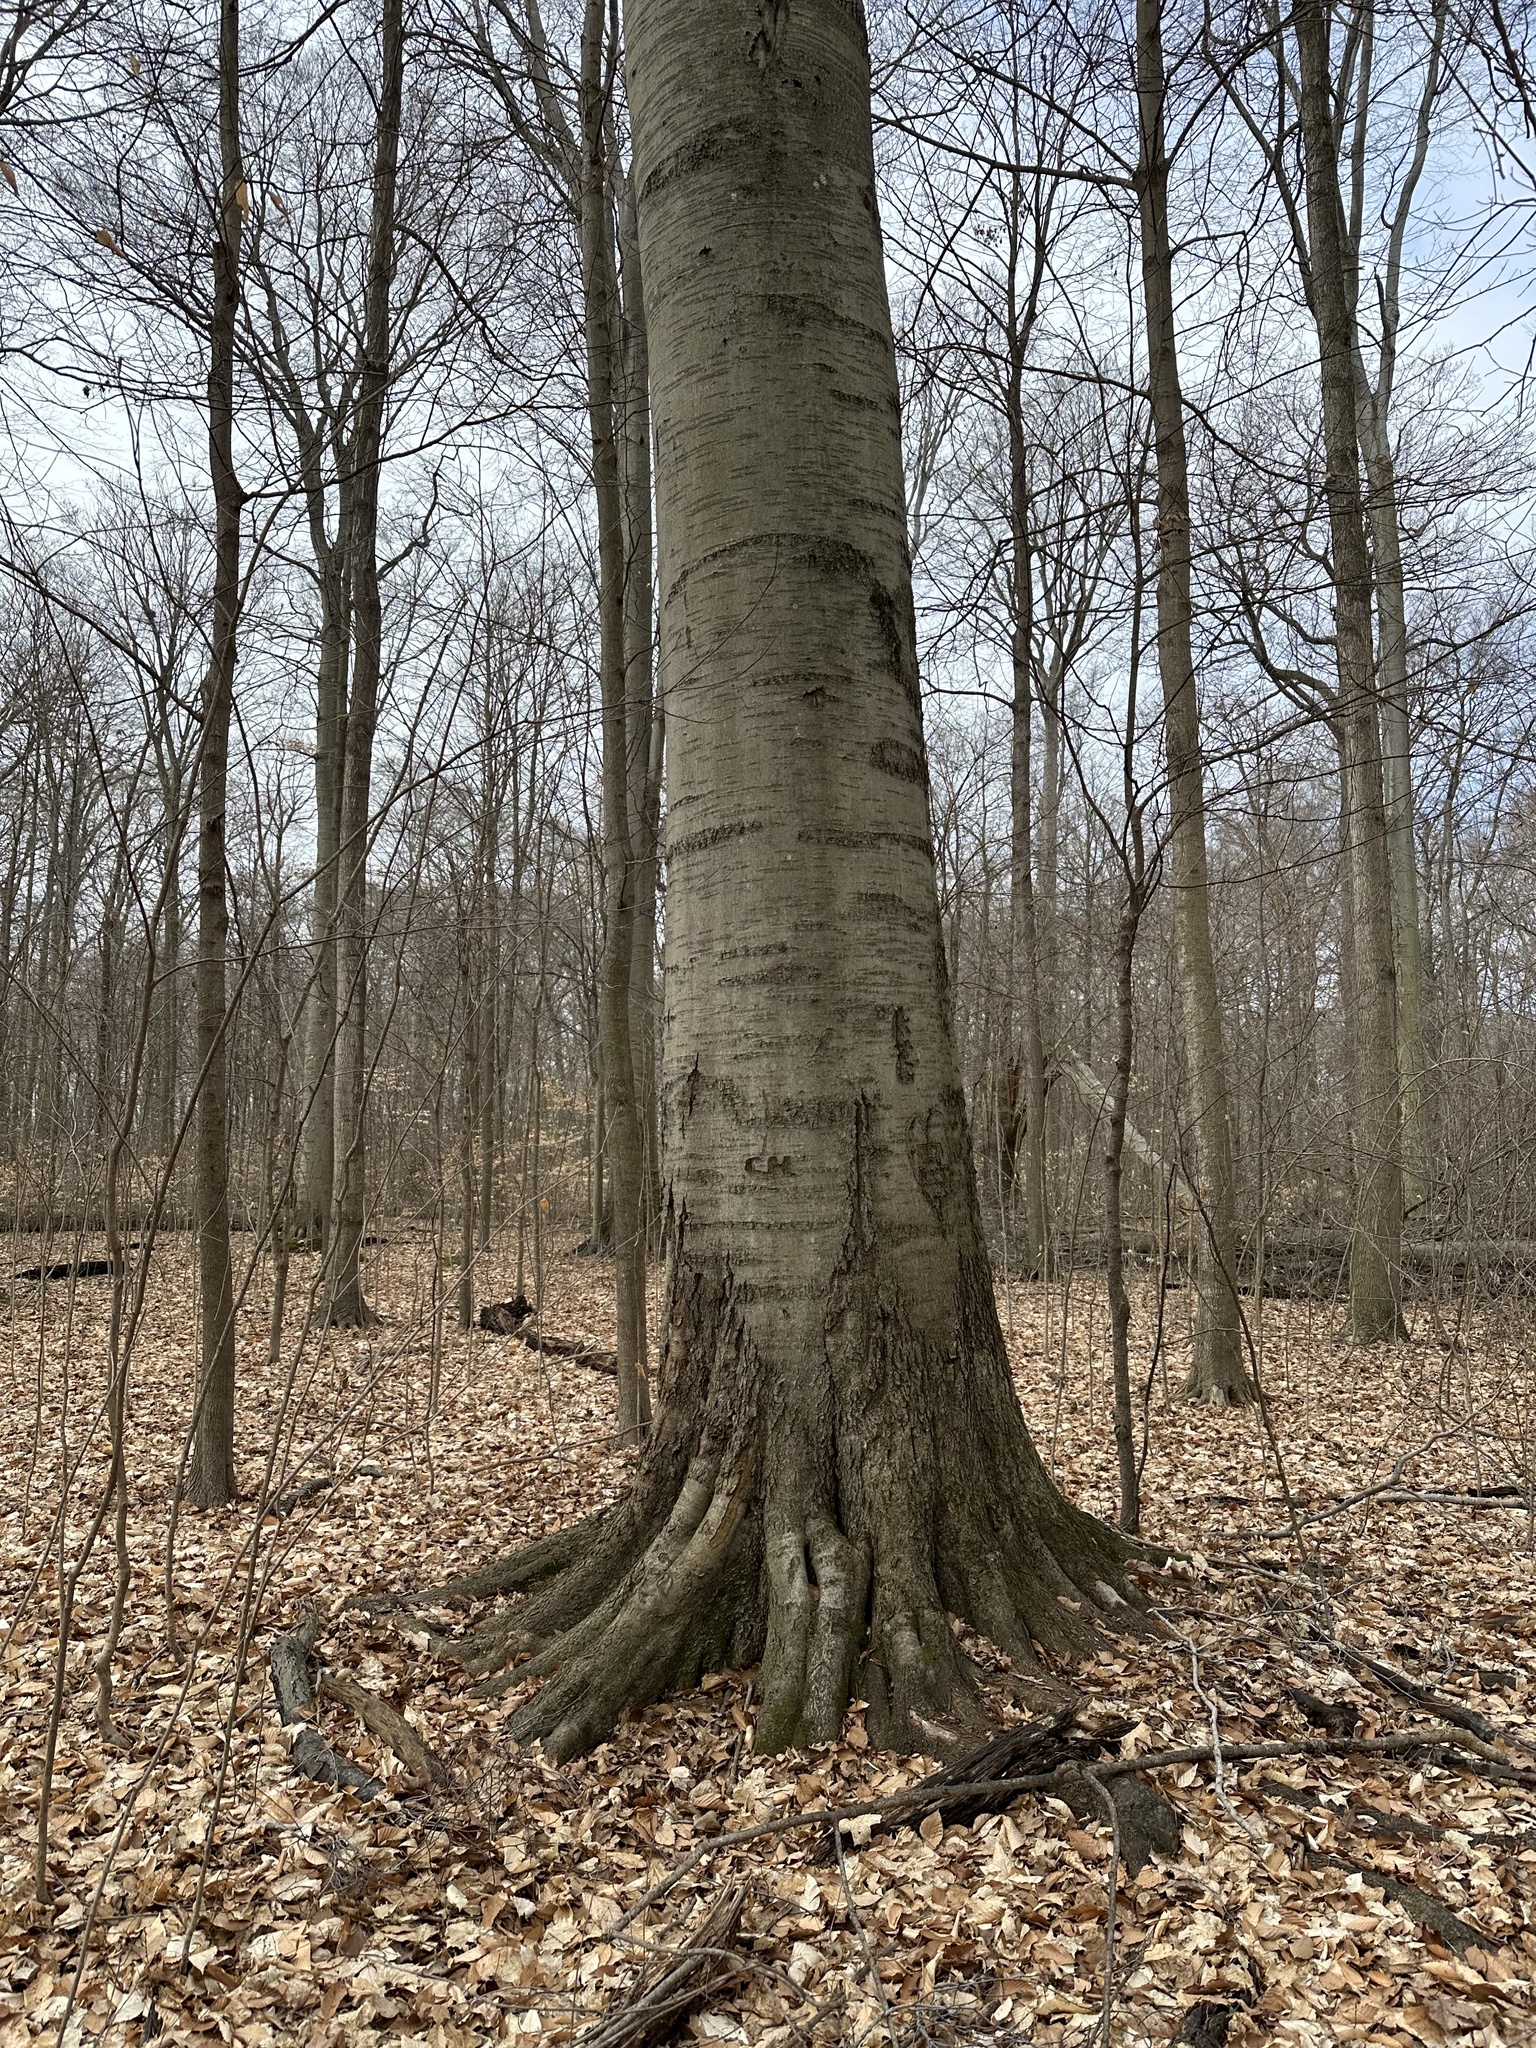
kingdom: Plantae
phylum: Tracheophyta
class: Magnoliopsida
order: Fagales
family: Fagaceae
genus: Fagus
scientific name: Fagus grandifolia
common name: American beech
